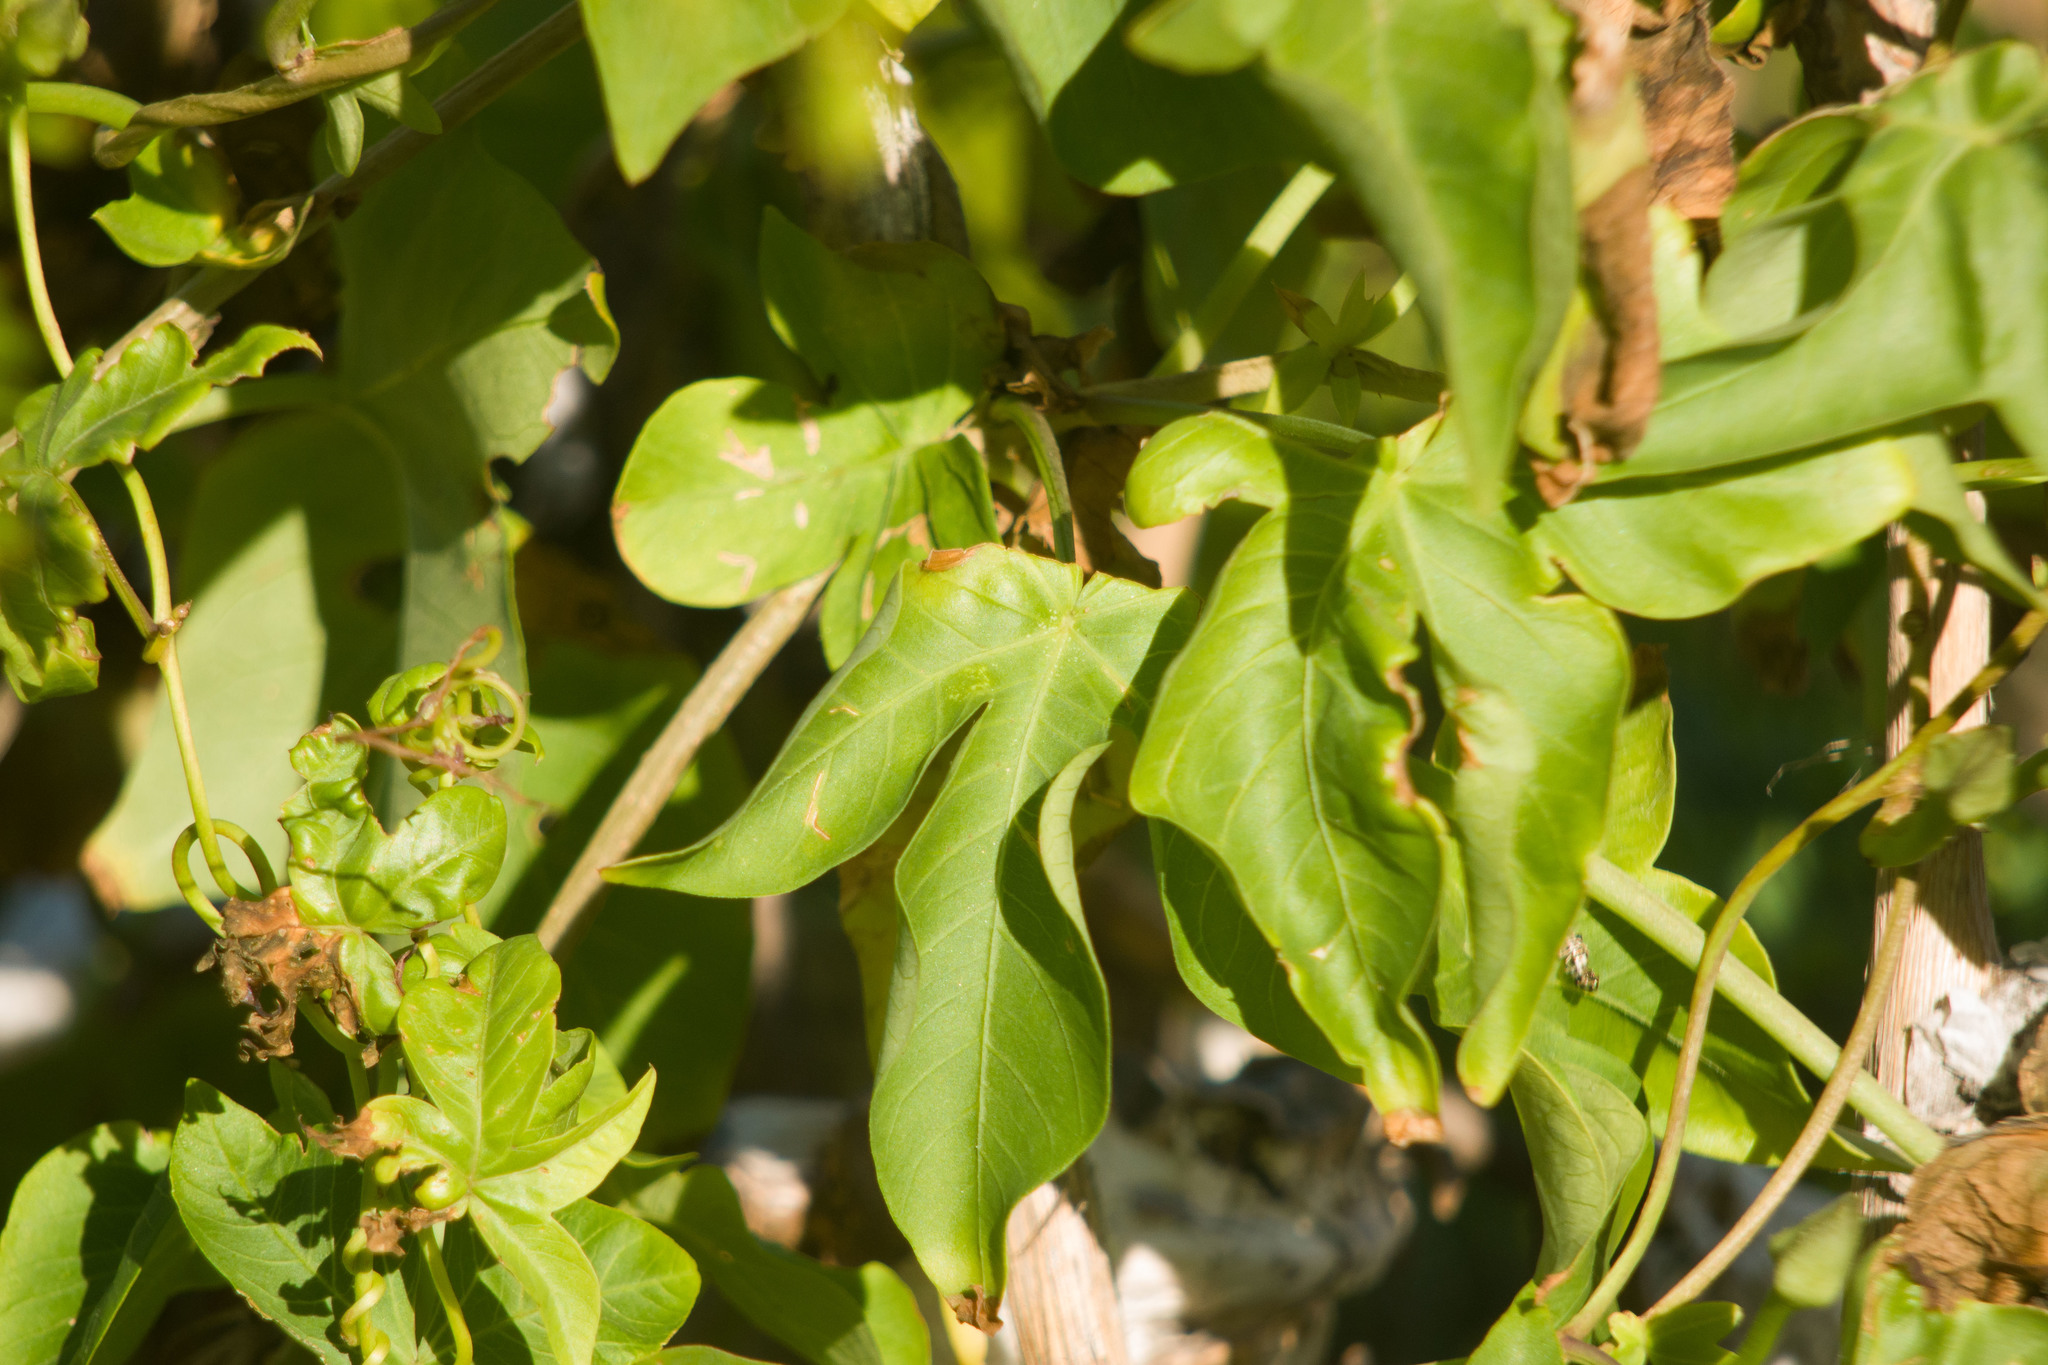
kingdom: Plantae
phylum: Tracheophyta
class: Magnoliopsida
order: Solanales
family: Convolvulaceae
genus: Ipomoea
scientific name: Ipomoea cairica
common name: Mile a minute vine
